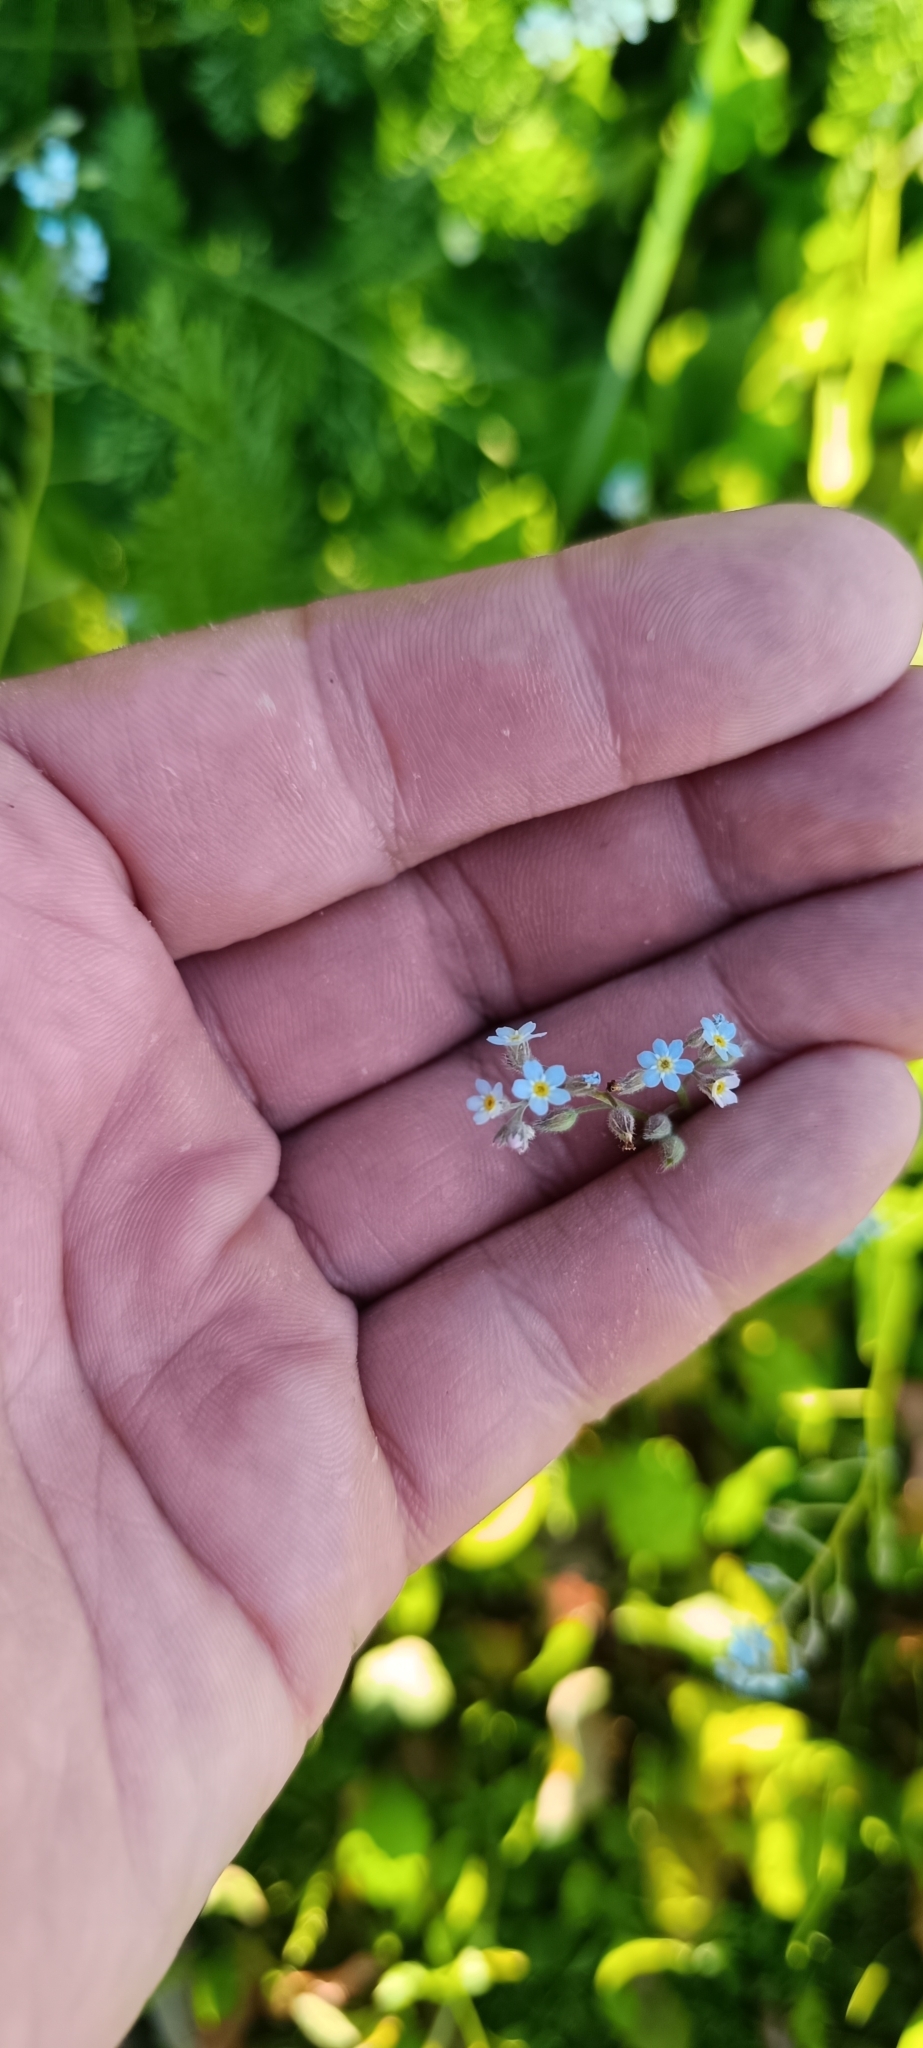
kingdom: Plantae
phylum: Tracheophyta
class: Magnoliopsida
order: Boraginales
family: Boraginaceae
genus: Myosotis
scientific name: Myosotis arvensis
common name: Field forget-me-not
